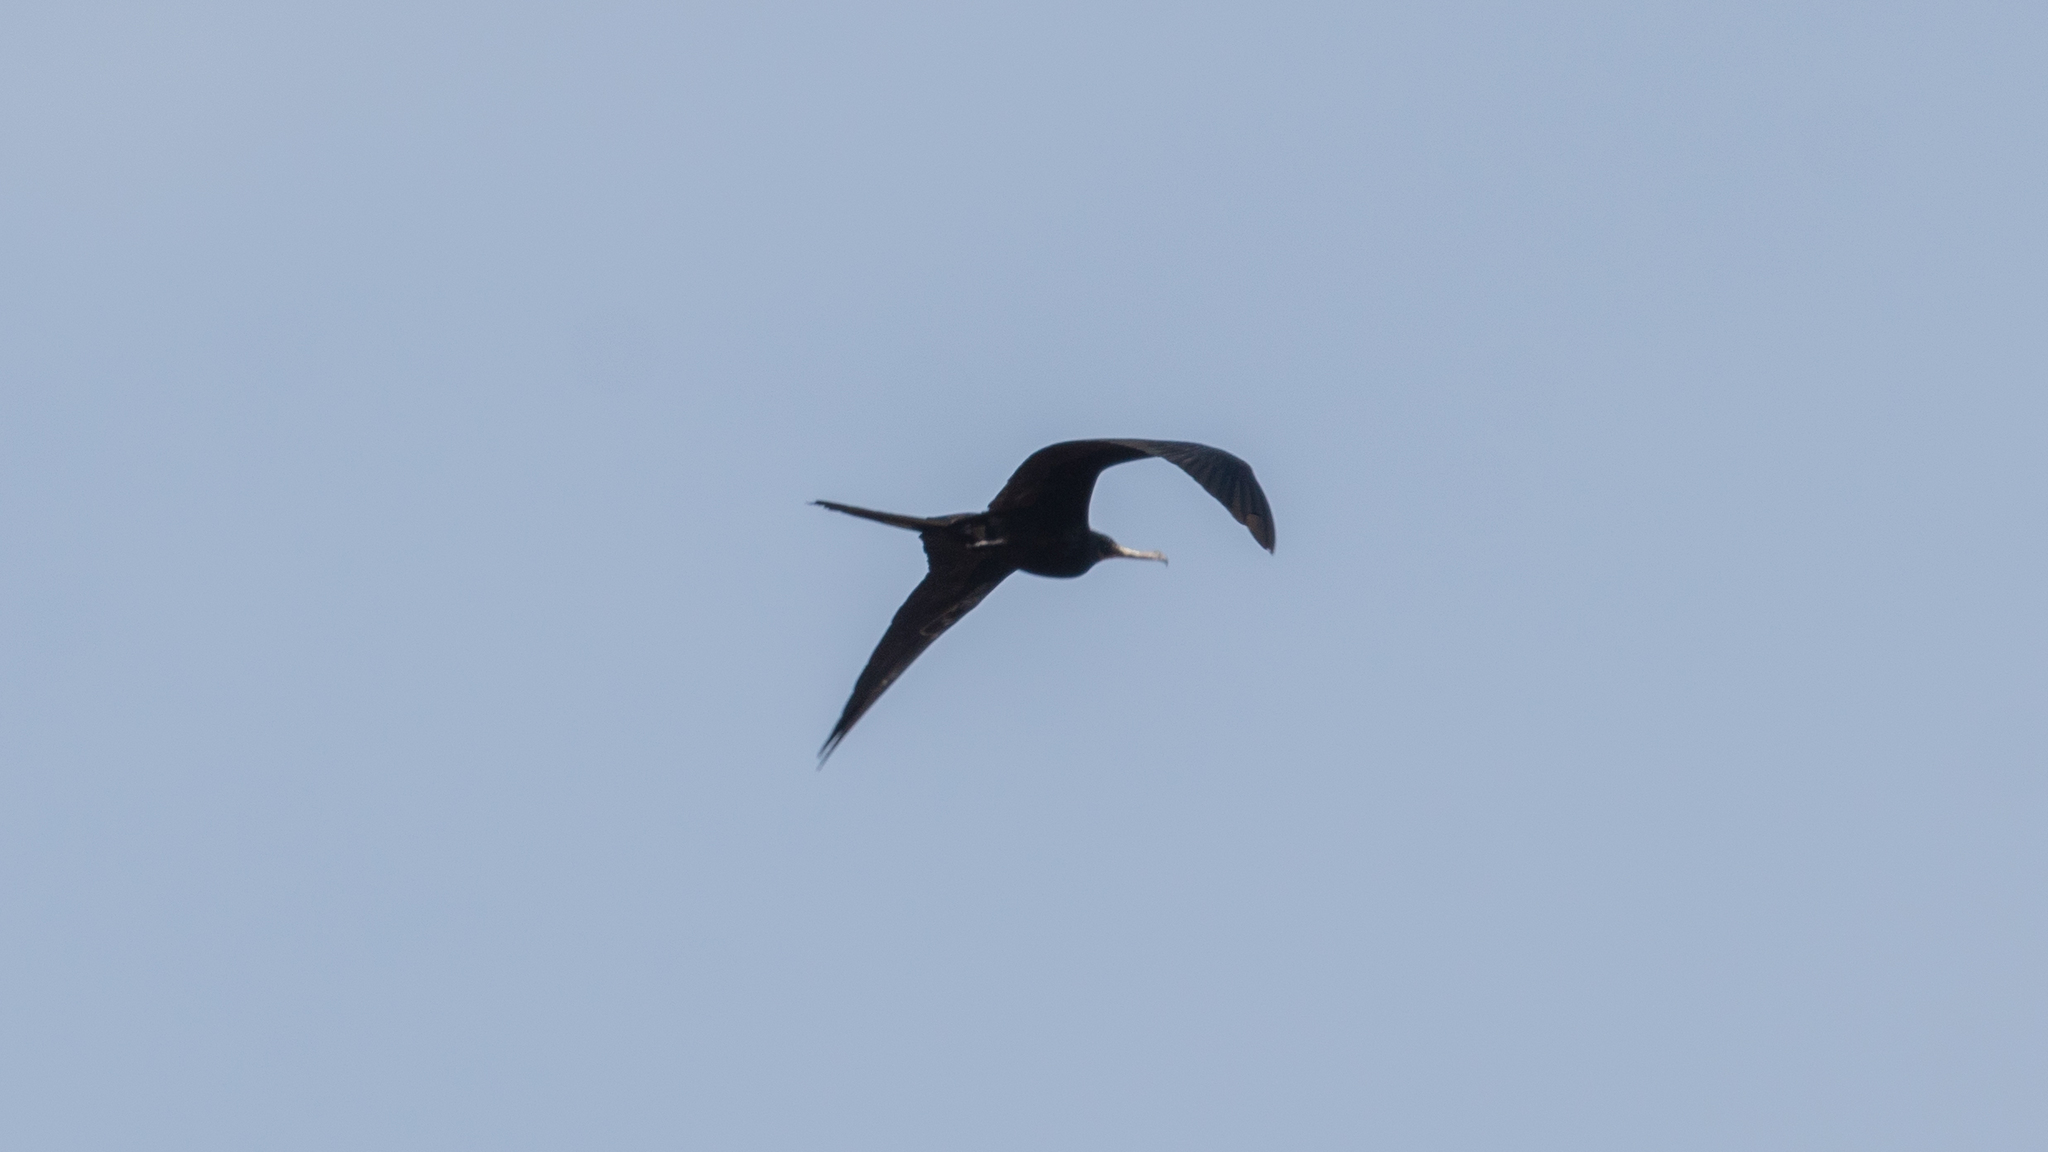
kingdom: Animalia
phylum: Chordata
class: Aves
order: Suliformes
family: Fregatidae
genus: Fregata
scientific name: Fregata magnificens
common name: Magnificent frigatebird
